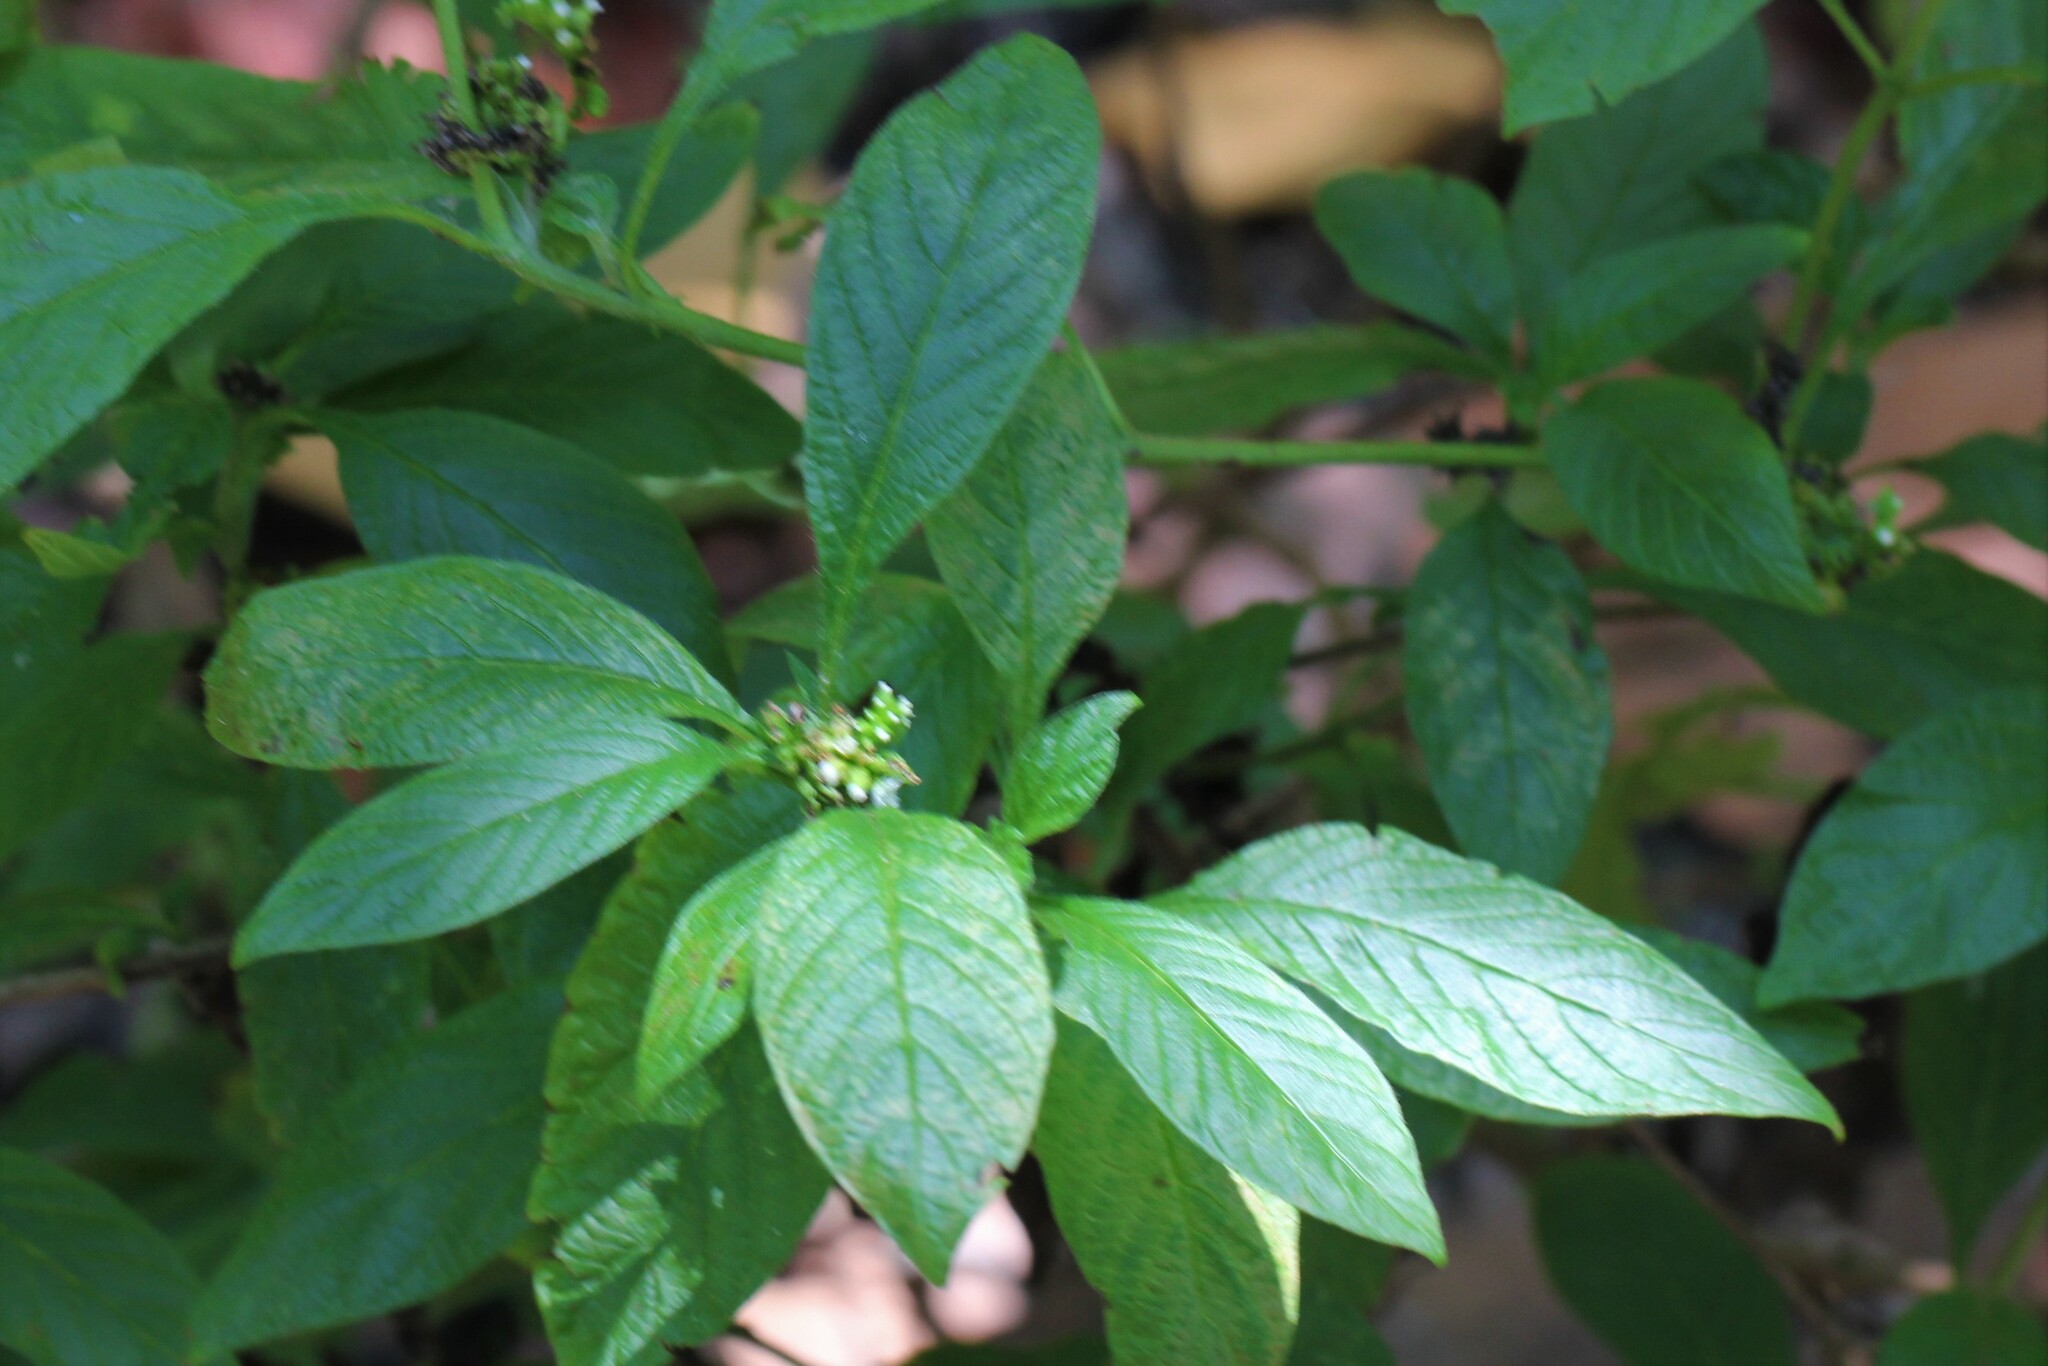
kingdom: Plantae
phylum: Tracheophyta
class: Magnoliopsida
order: Boraginales
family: Heliotropiaceae
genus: Heliotropium
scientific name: Heliotropium angiospermum
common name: Eye bright
